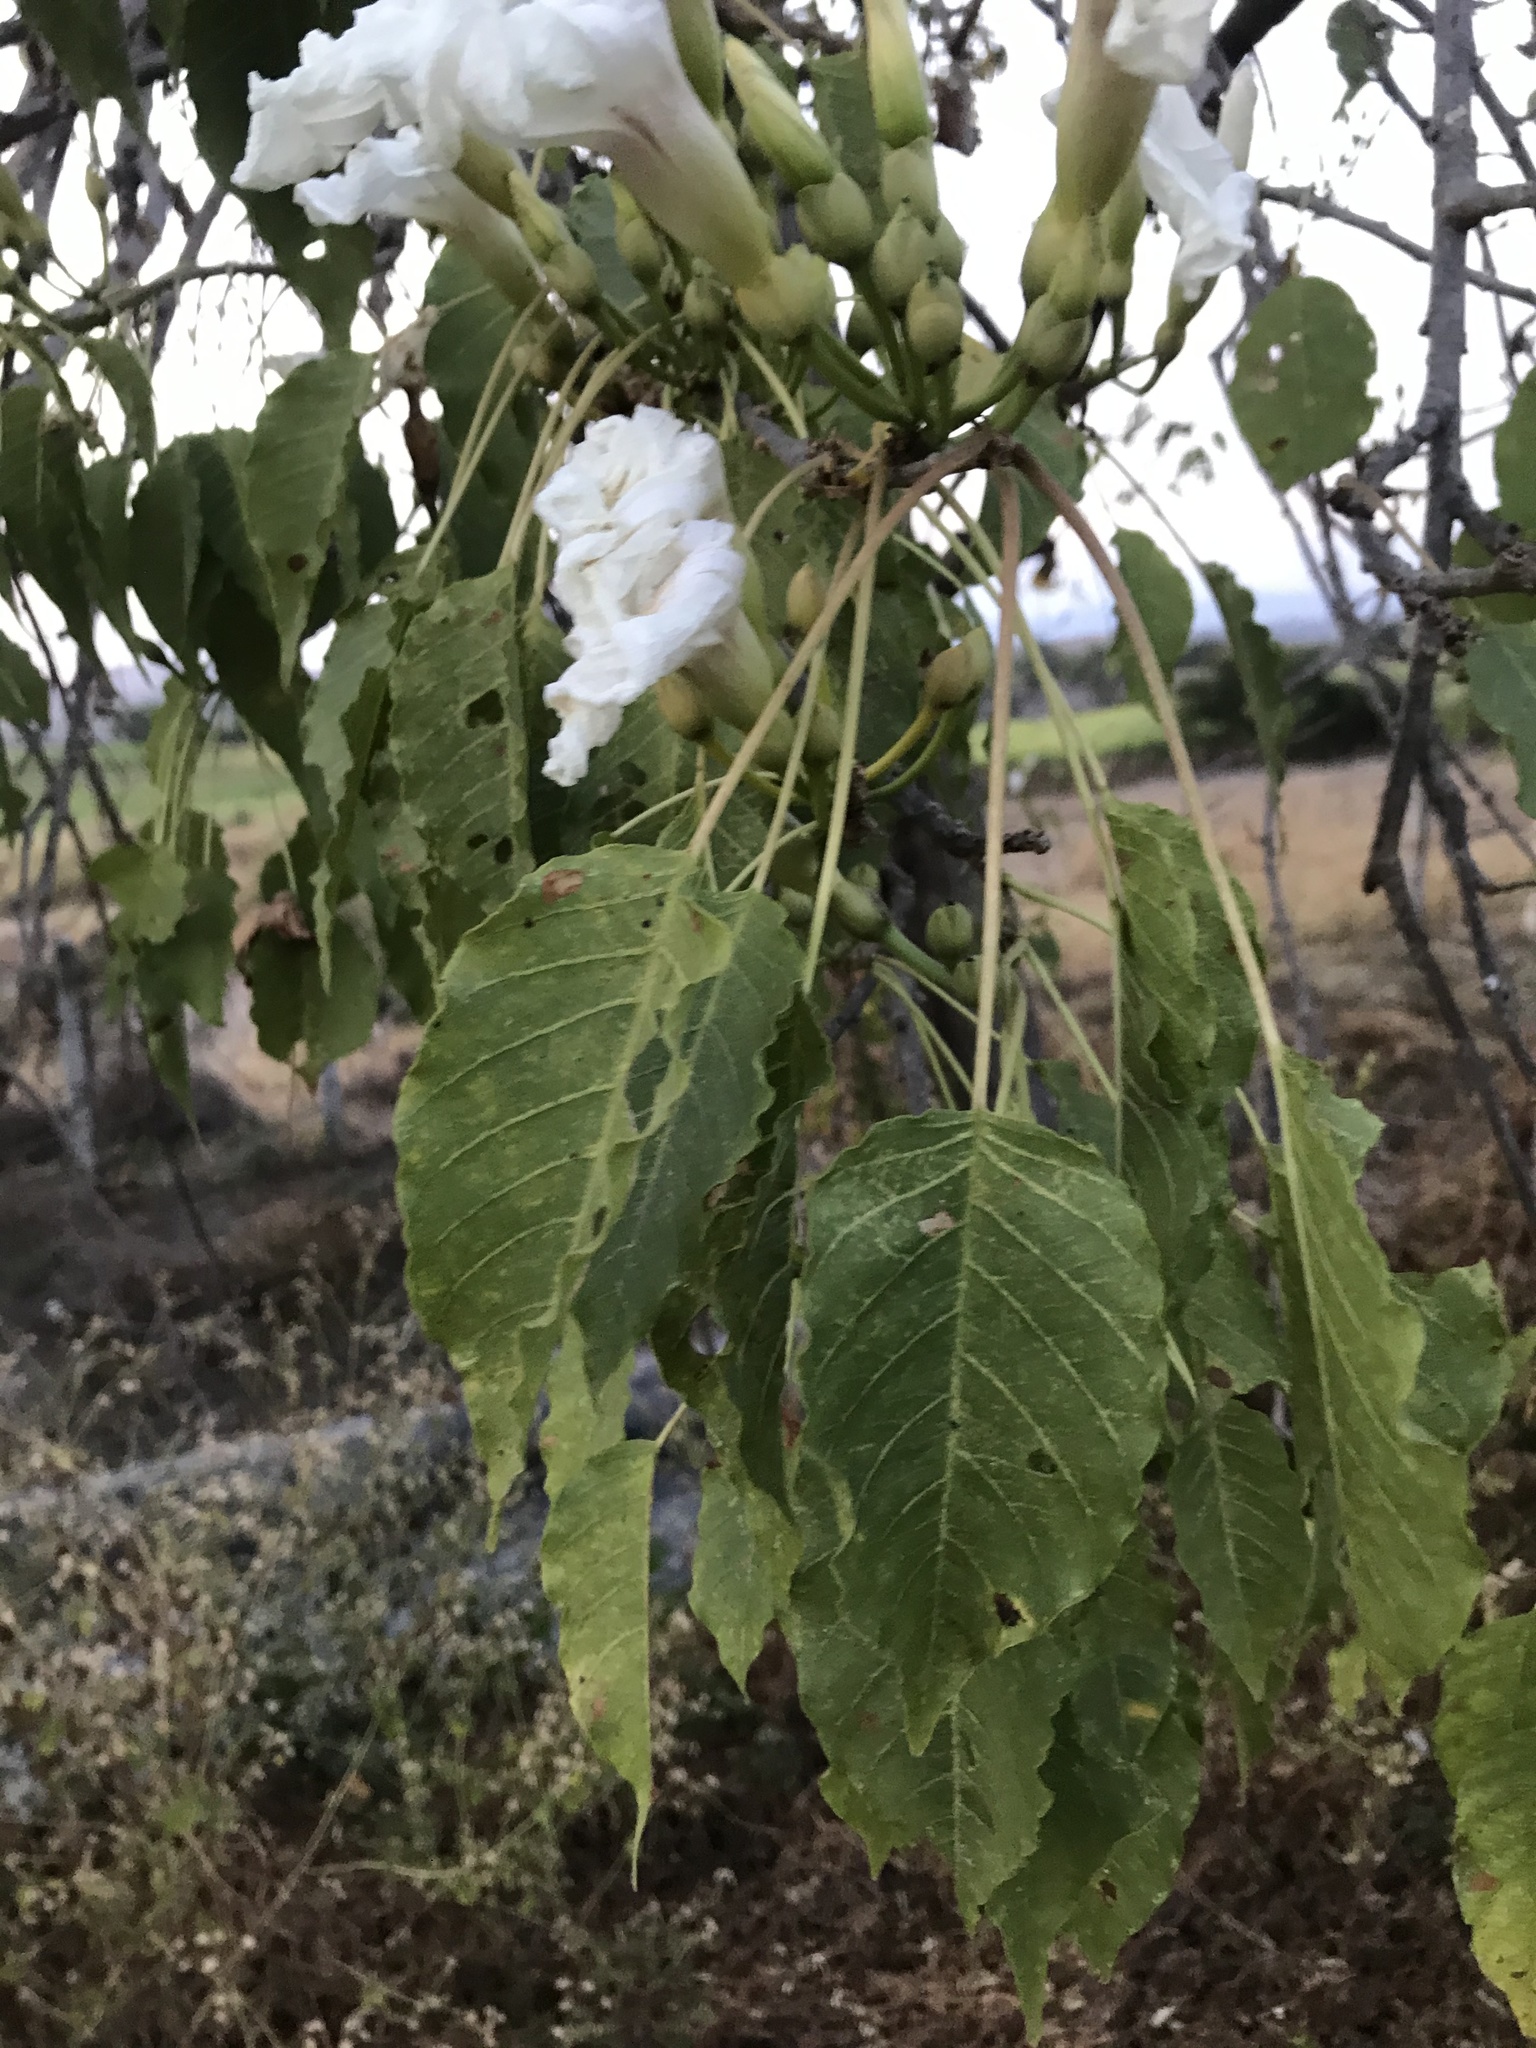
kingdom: Plantae
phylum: Tracheophyta
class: Magnoliopsida
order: Solanales
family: Convolvulaceae
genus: Ipomoea
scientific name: Ipomoea pauciflora
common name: Tree morningglory
